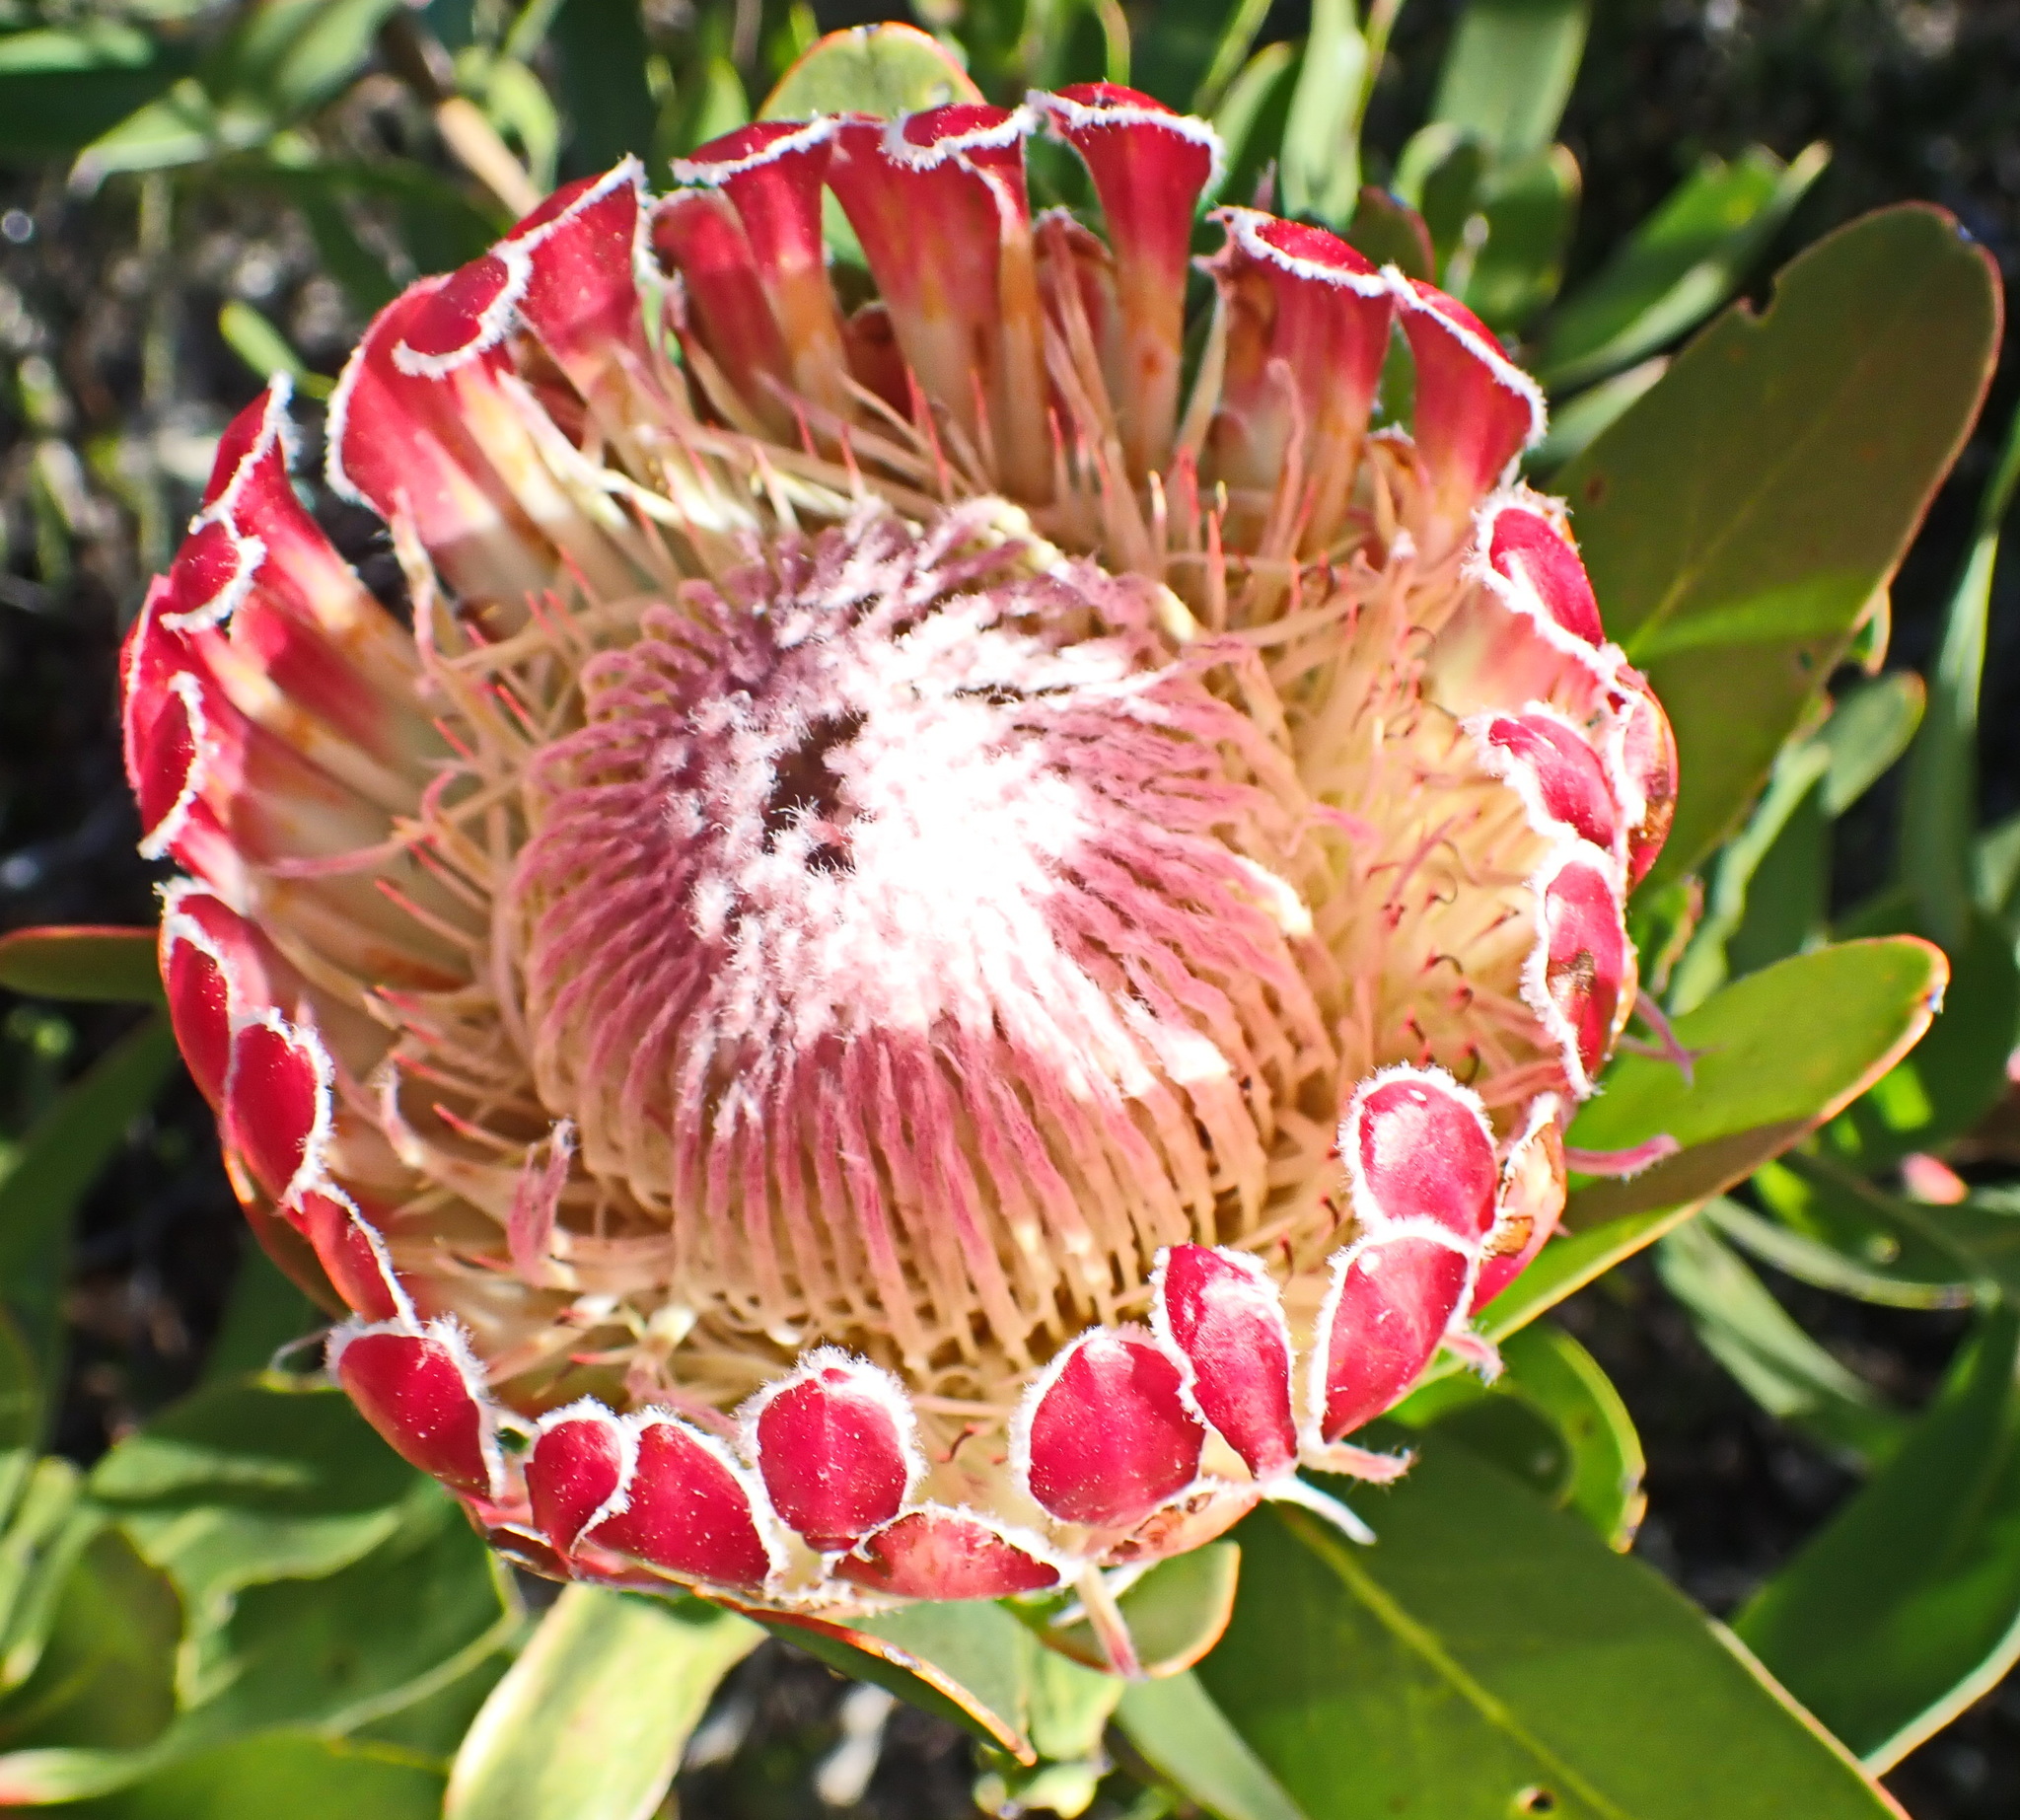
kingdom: Plantae
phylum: Tracheophyta
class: Magnoliopsida
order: Proteales
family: Proteaceae
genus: Protea
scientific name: Protea obtusifolia
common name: Bredasdorp sugarbush
